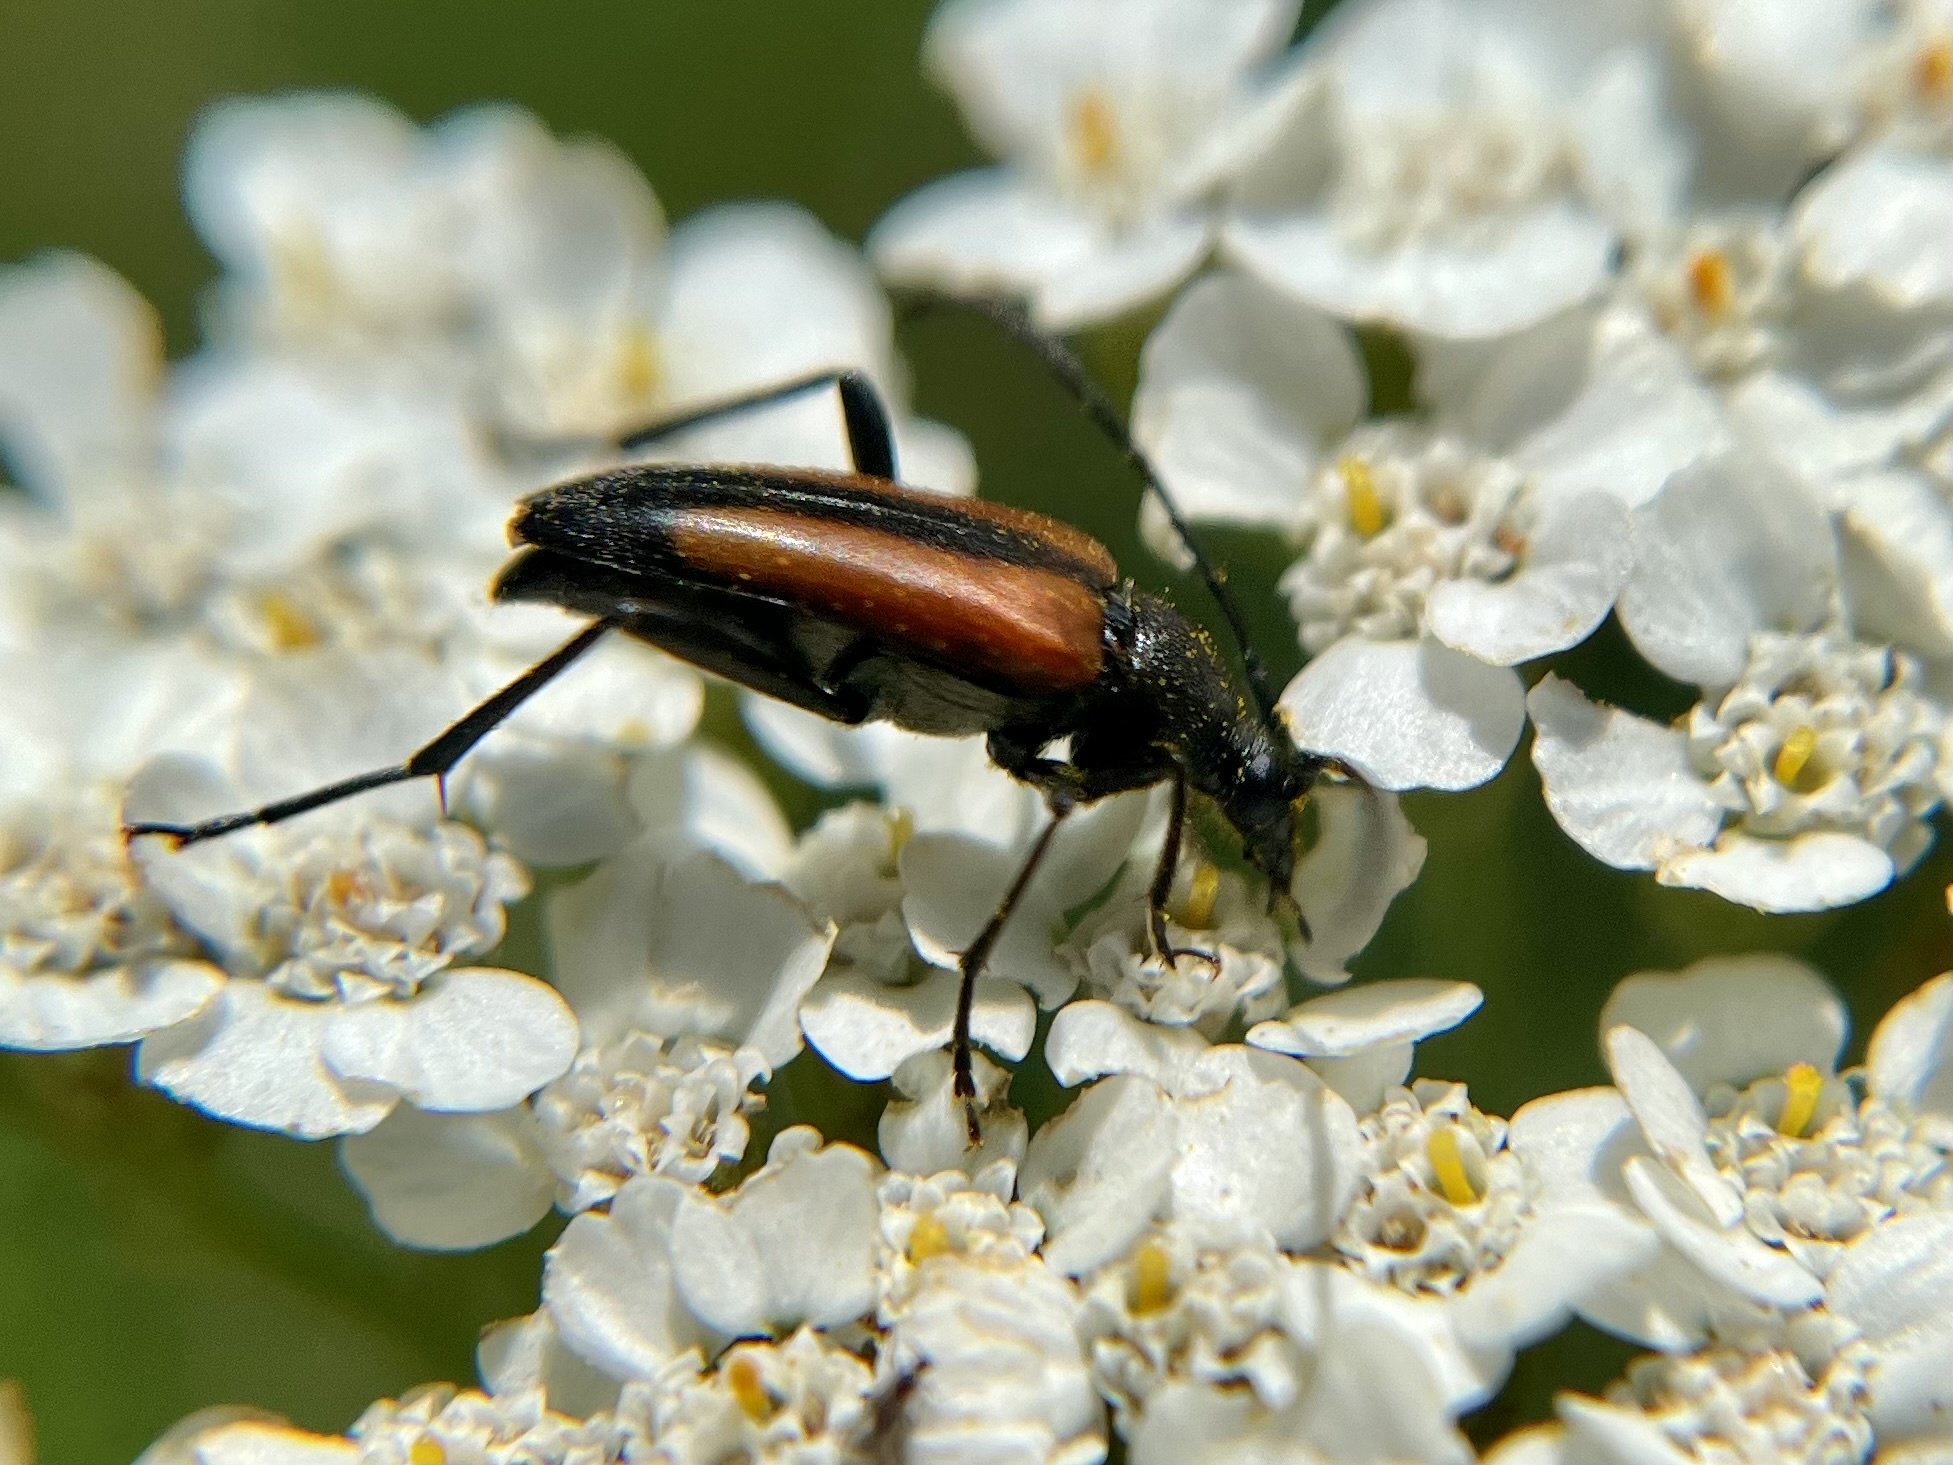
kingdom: Animalia
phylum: Arthropoda
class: Insecta
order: Coleoptera
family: Cerambycidae
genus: Stenurella
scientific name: Stenurella melanura
